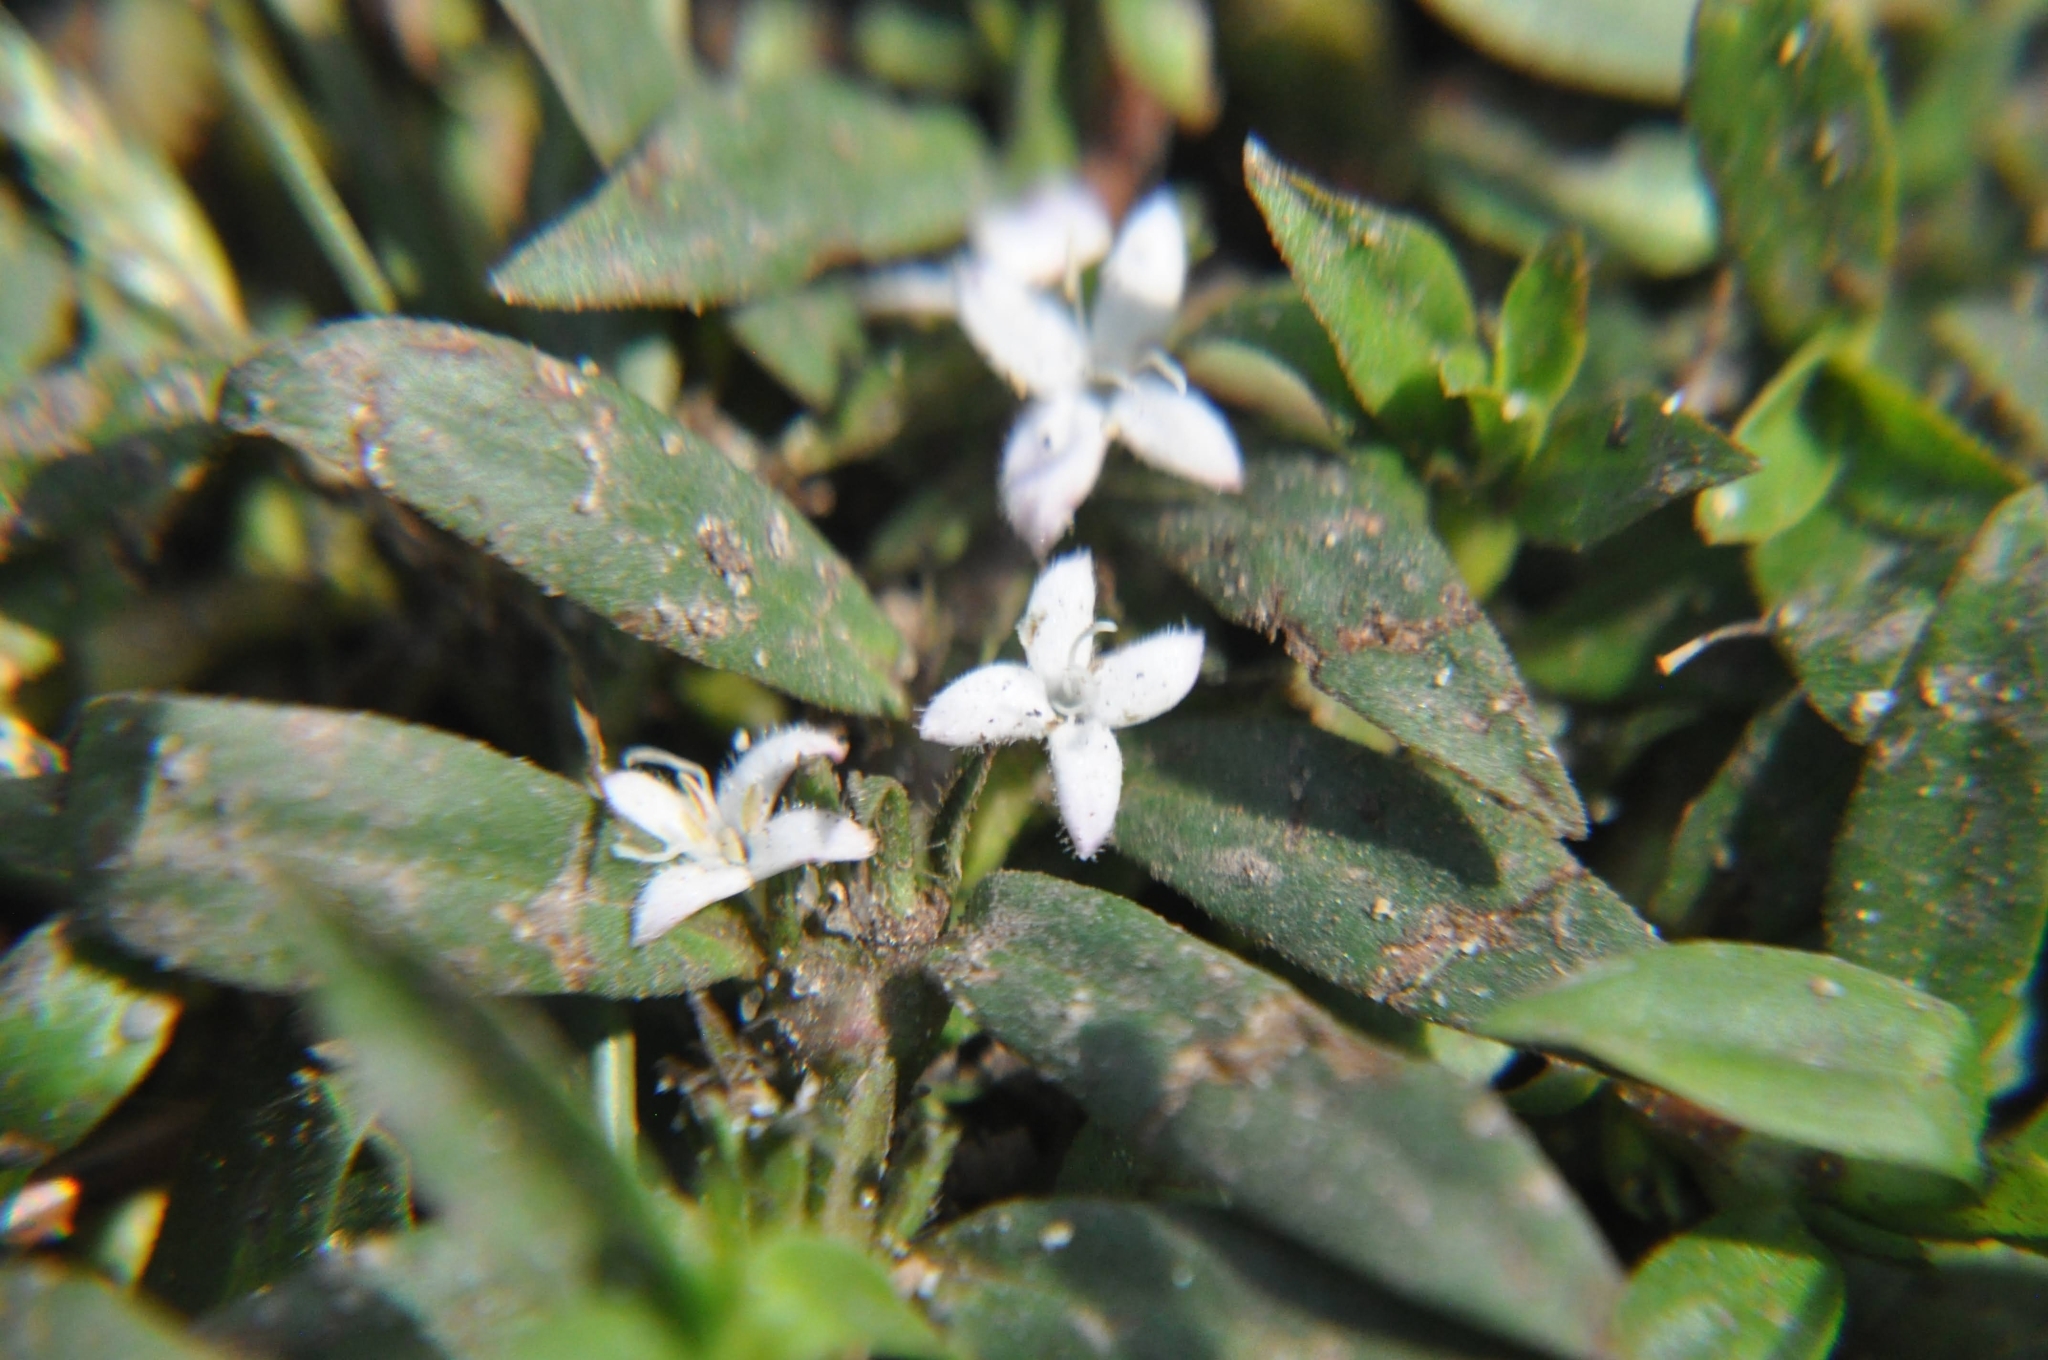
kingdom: Plantae
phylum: Tracheophyta
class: Magnoliopsida
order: Gentianales
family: Rubiaceae
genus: Diodia
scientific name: Diodia virginiana
